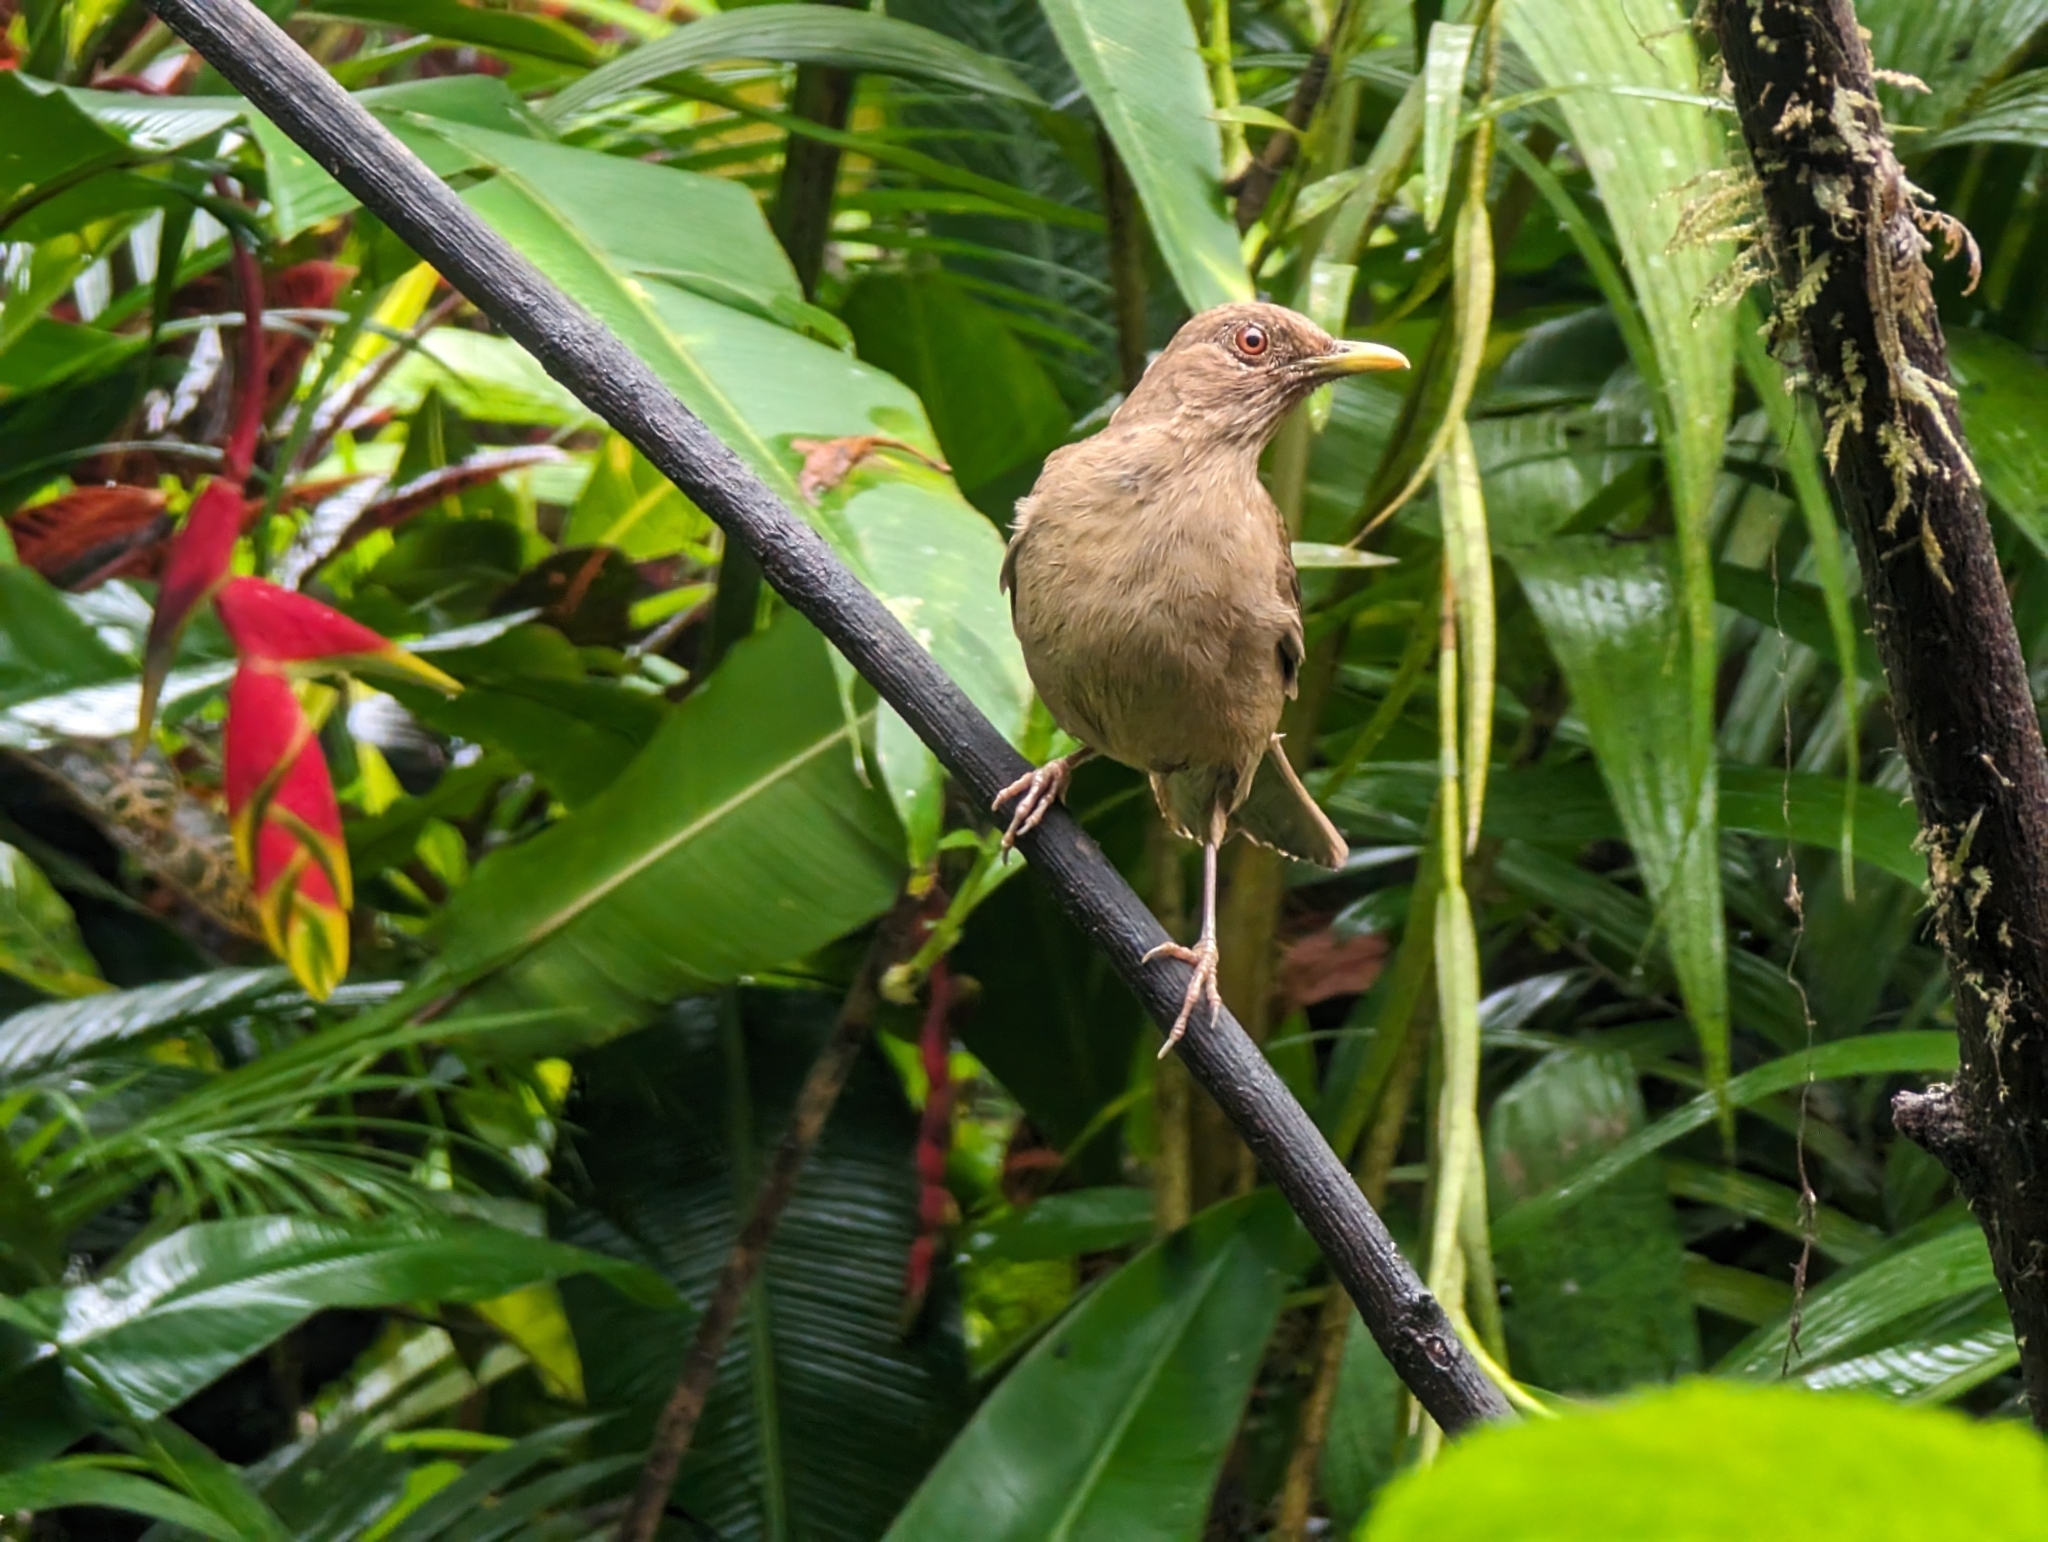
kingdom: Animalia
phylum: Chordata
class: Aves
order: Passeriformes
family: Turdidae
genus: Turdus
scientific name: Turdus grayi
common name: Clay-colored thrush
